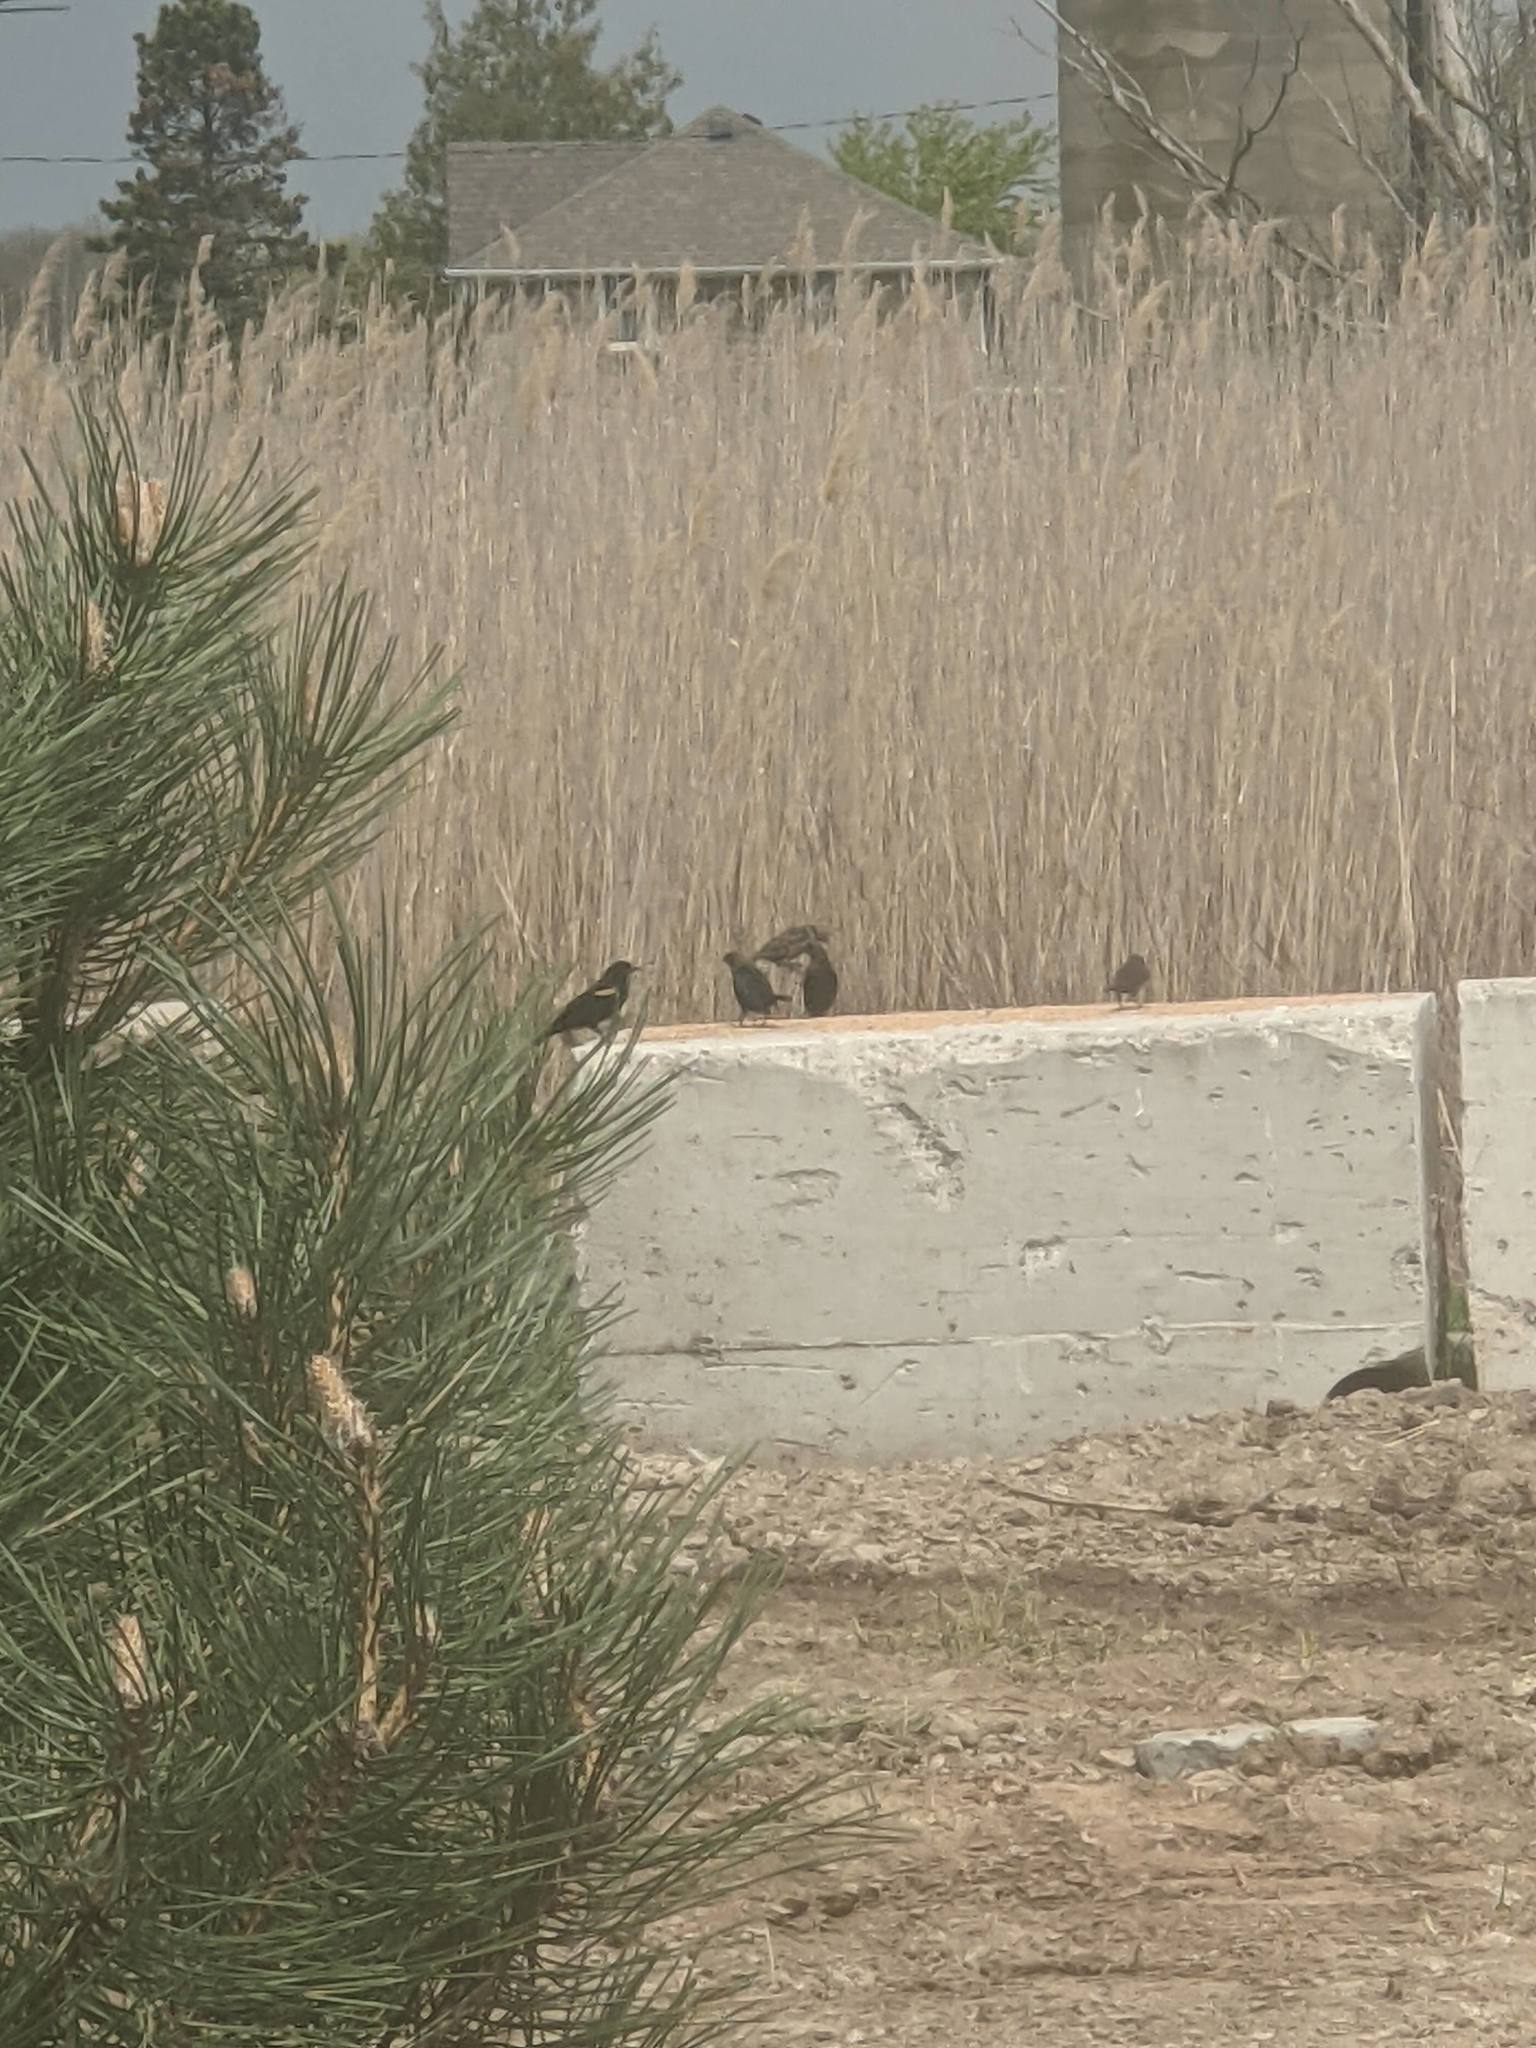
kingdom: Animalia
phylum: Chordata
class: Aves
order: Passeriformes
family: Icteridae
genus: Agelaius
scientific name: Agelaius phoeniceus
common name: Red-winged blackbird
